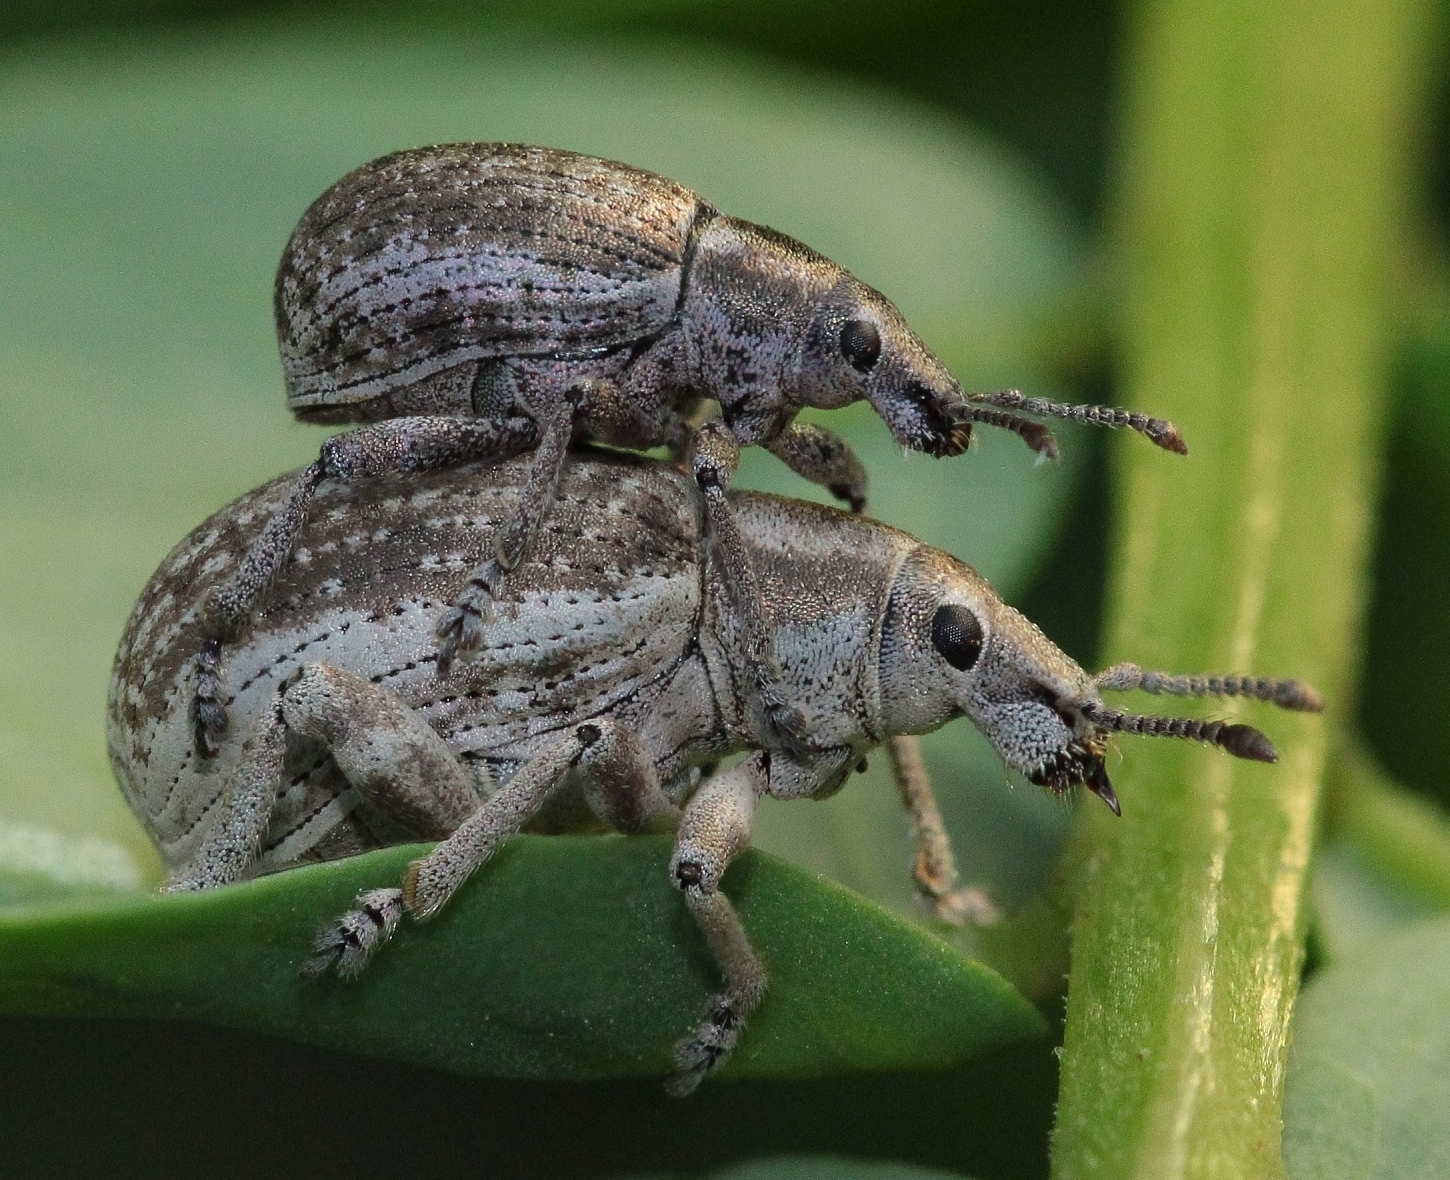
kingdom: Animalia
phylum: Arthropoda
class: Insecta
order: Coleoptera
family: Curculionidae
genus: Attactagenus
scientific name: Attactagenus albinus
